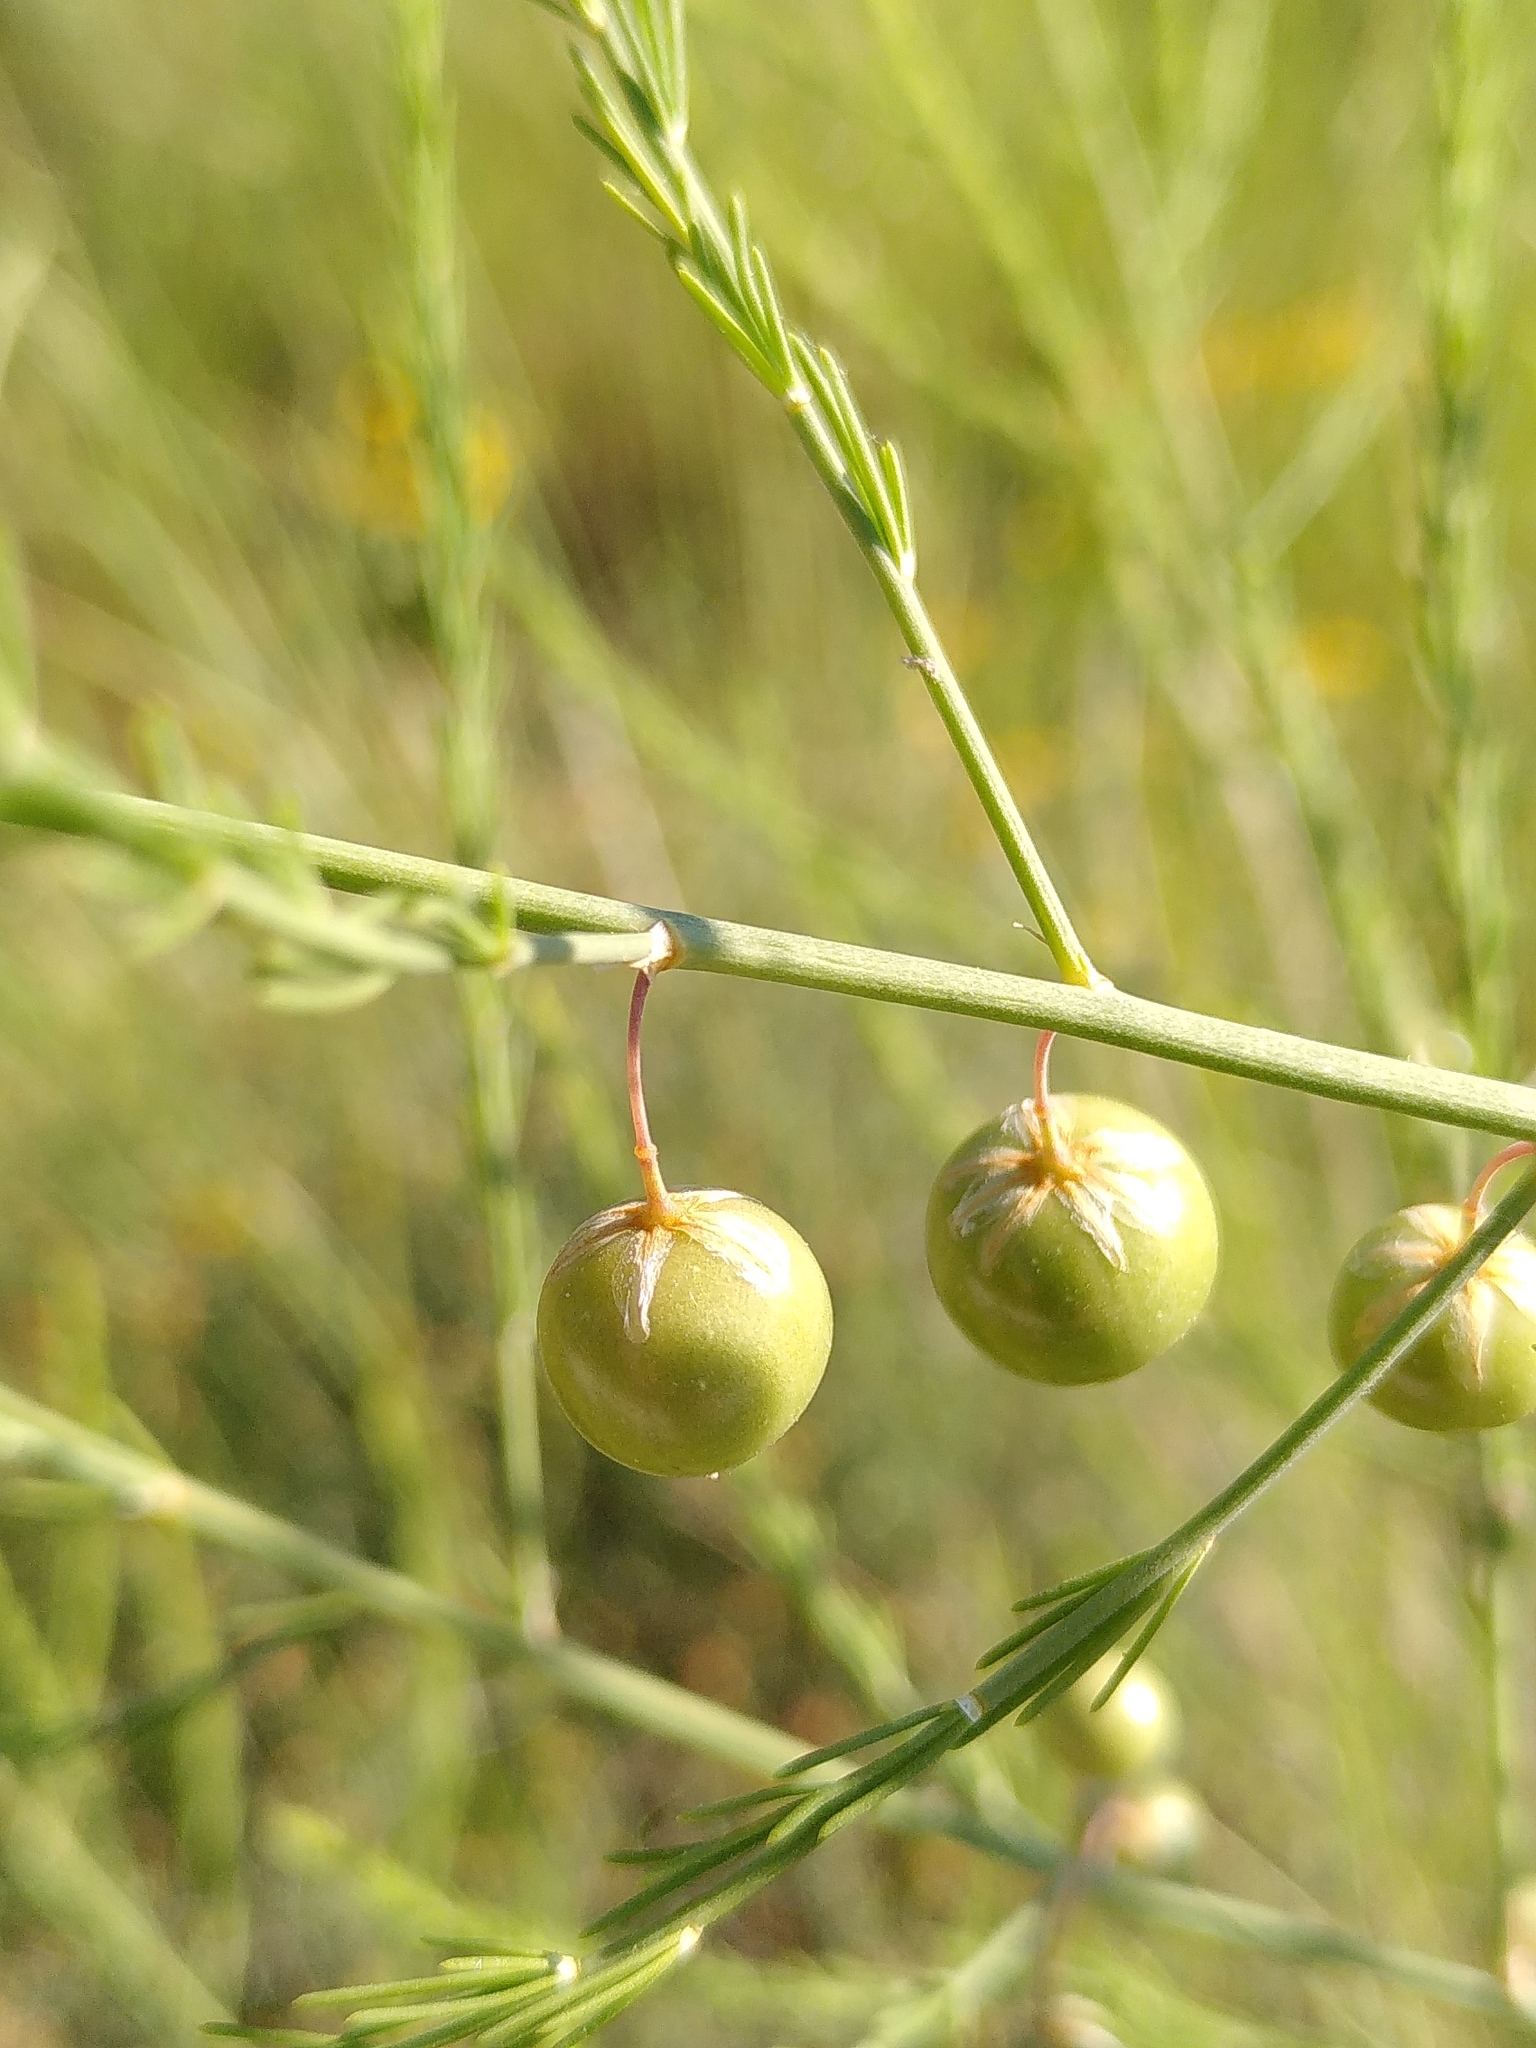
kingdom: Plantae
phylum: Tracheophyta
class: Liliopsida
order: Asparagales
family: Asparagaceae
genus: Asparagus
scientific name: Asparagus officinalis
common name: Garden asparagus
